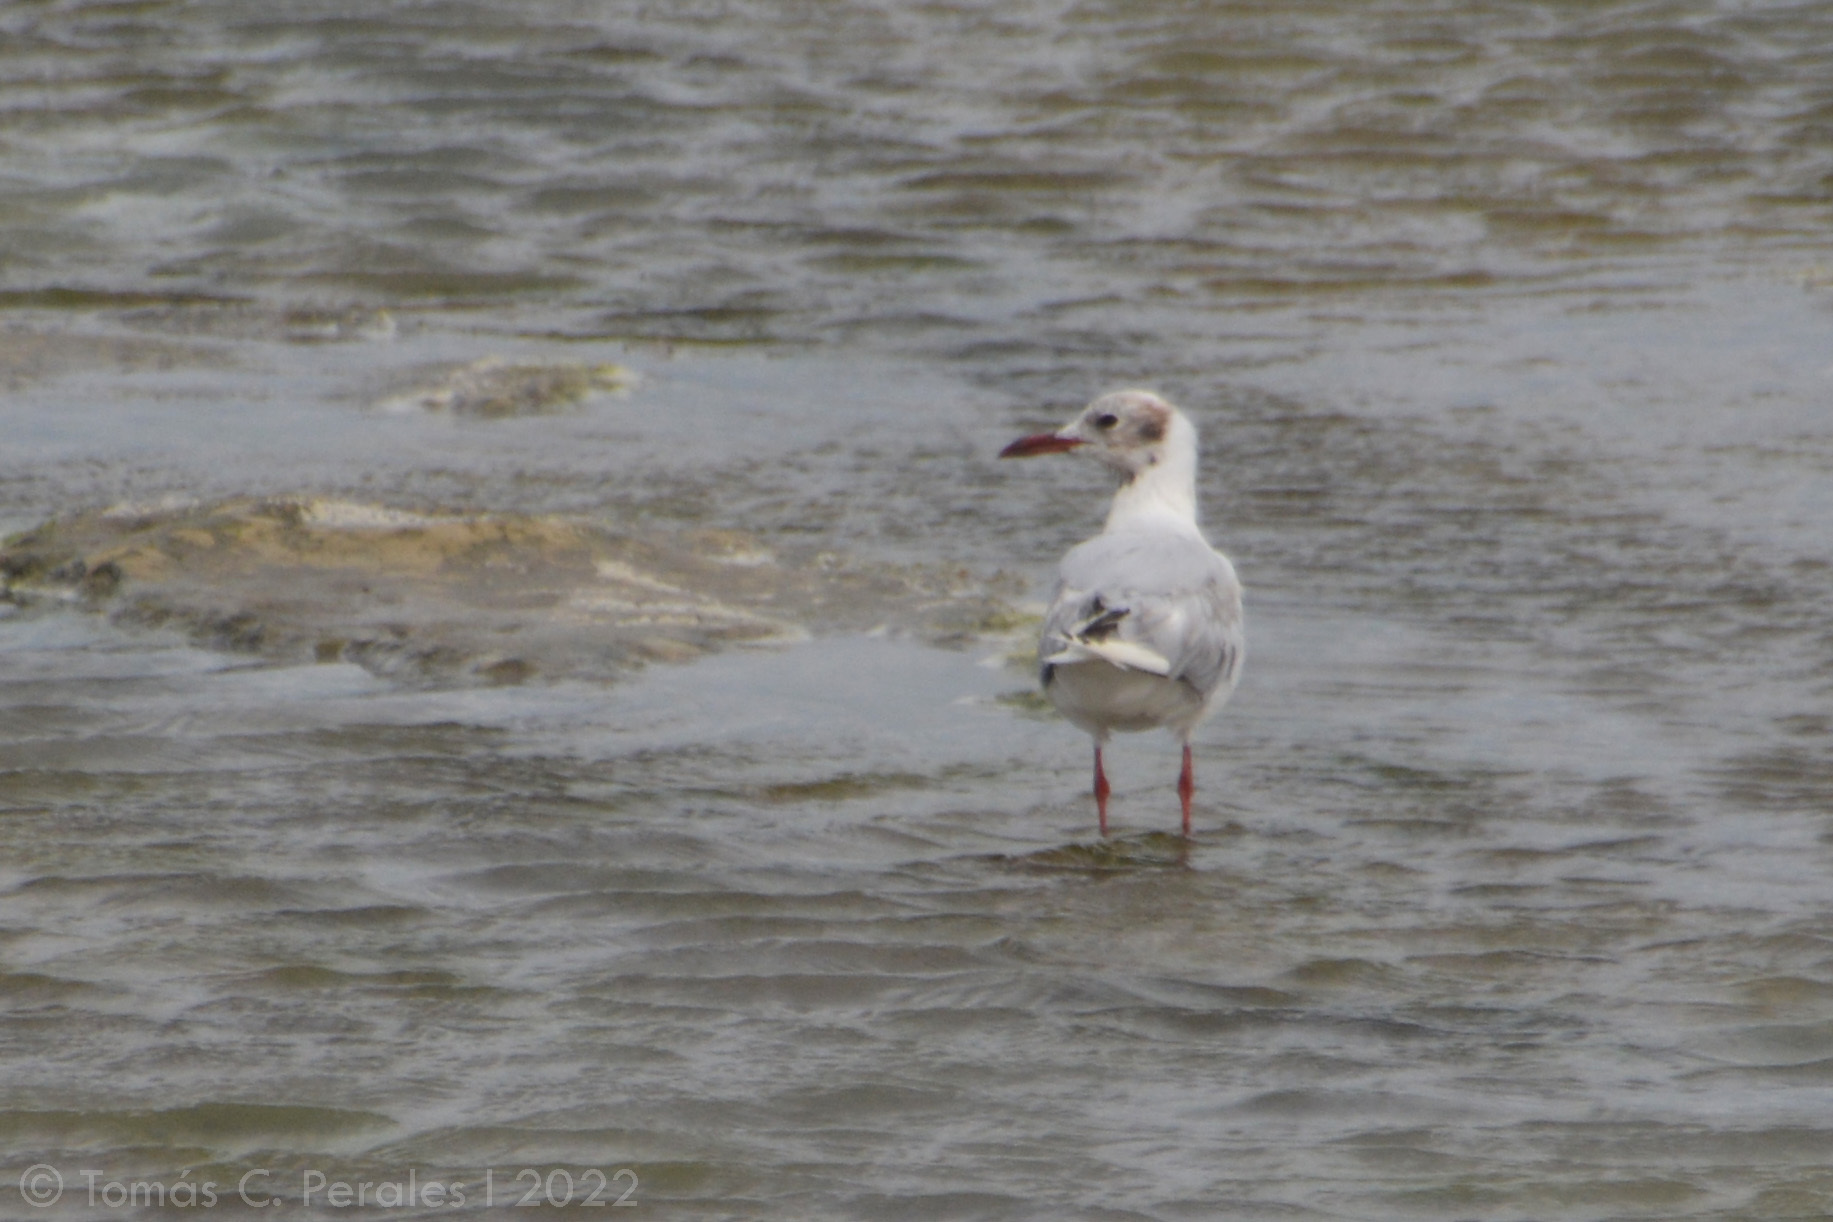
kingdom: Animalia
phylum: Chordata
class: Aves
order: Charadriiformes
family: Laridae
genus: Chroicocephalus
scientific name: Chroicocephalus maculipennis
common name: Brown-hooded gull
